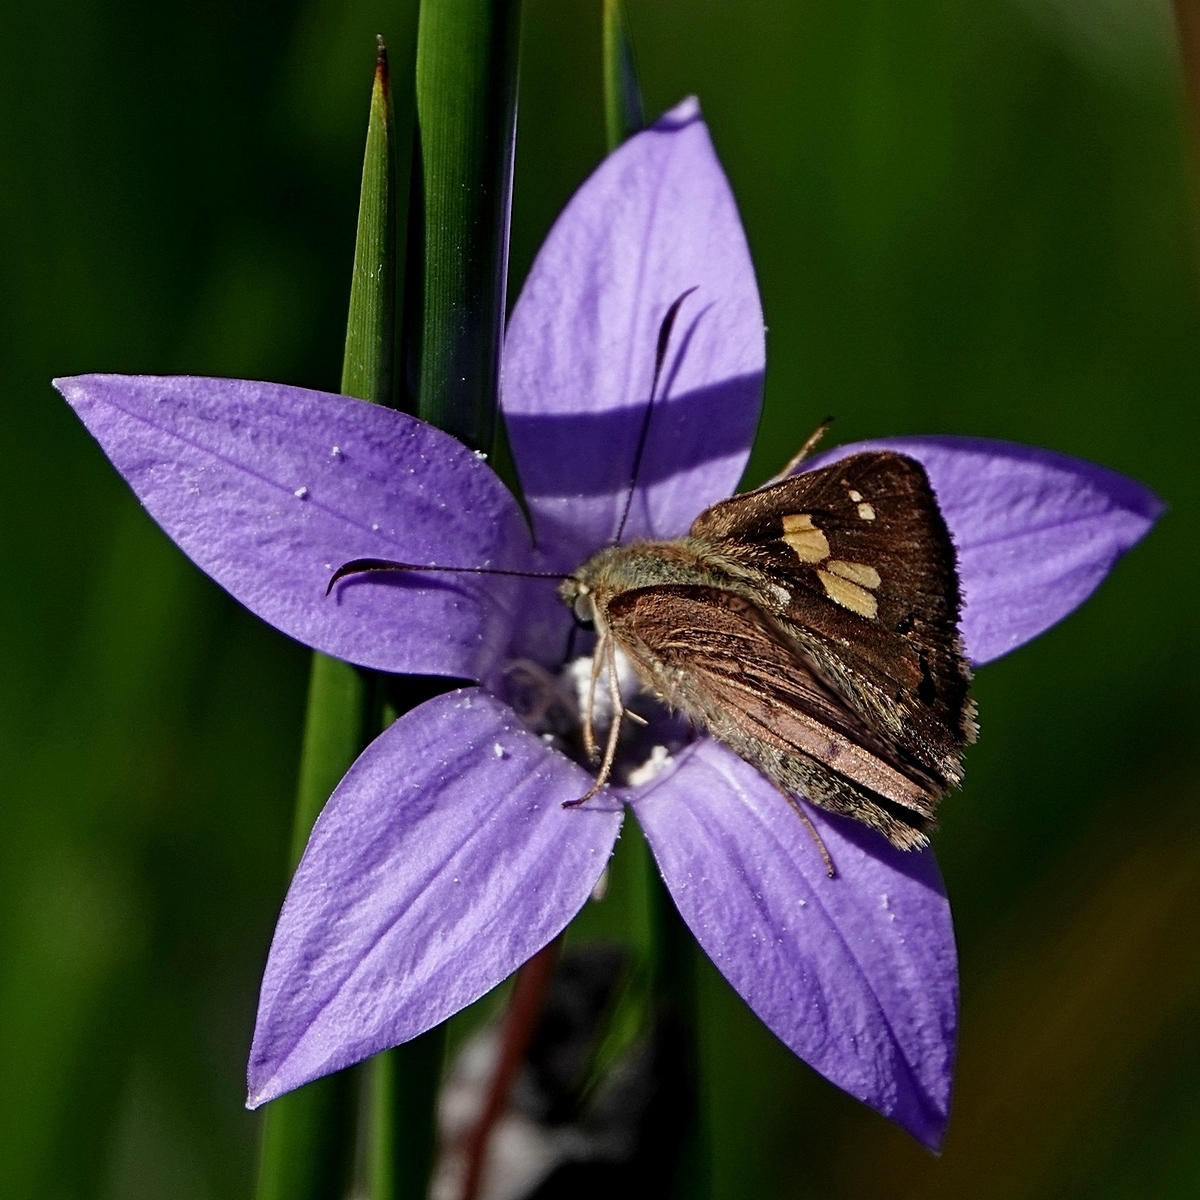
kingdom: Animalia
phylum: Arthropoda
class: Insecta
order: Lepidoptera
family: Hesperiidae
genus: Toxidia
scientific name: Toxidia
